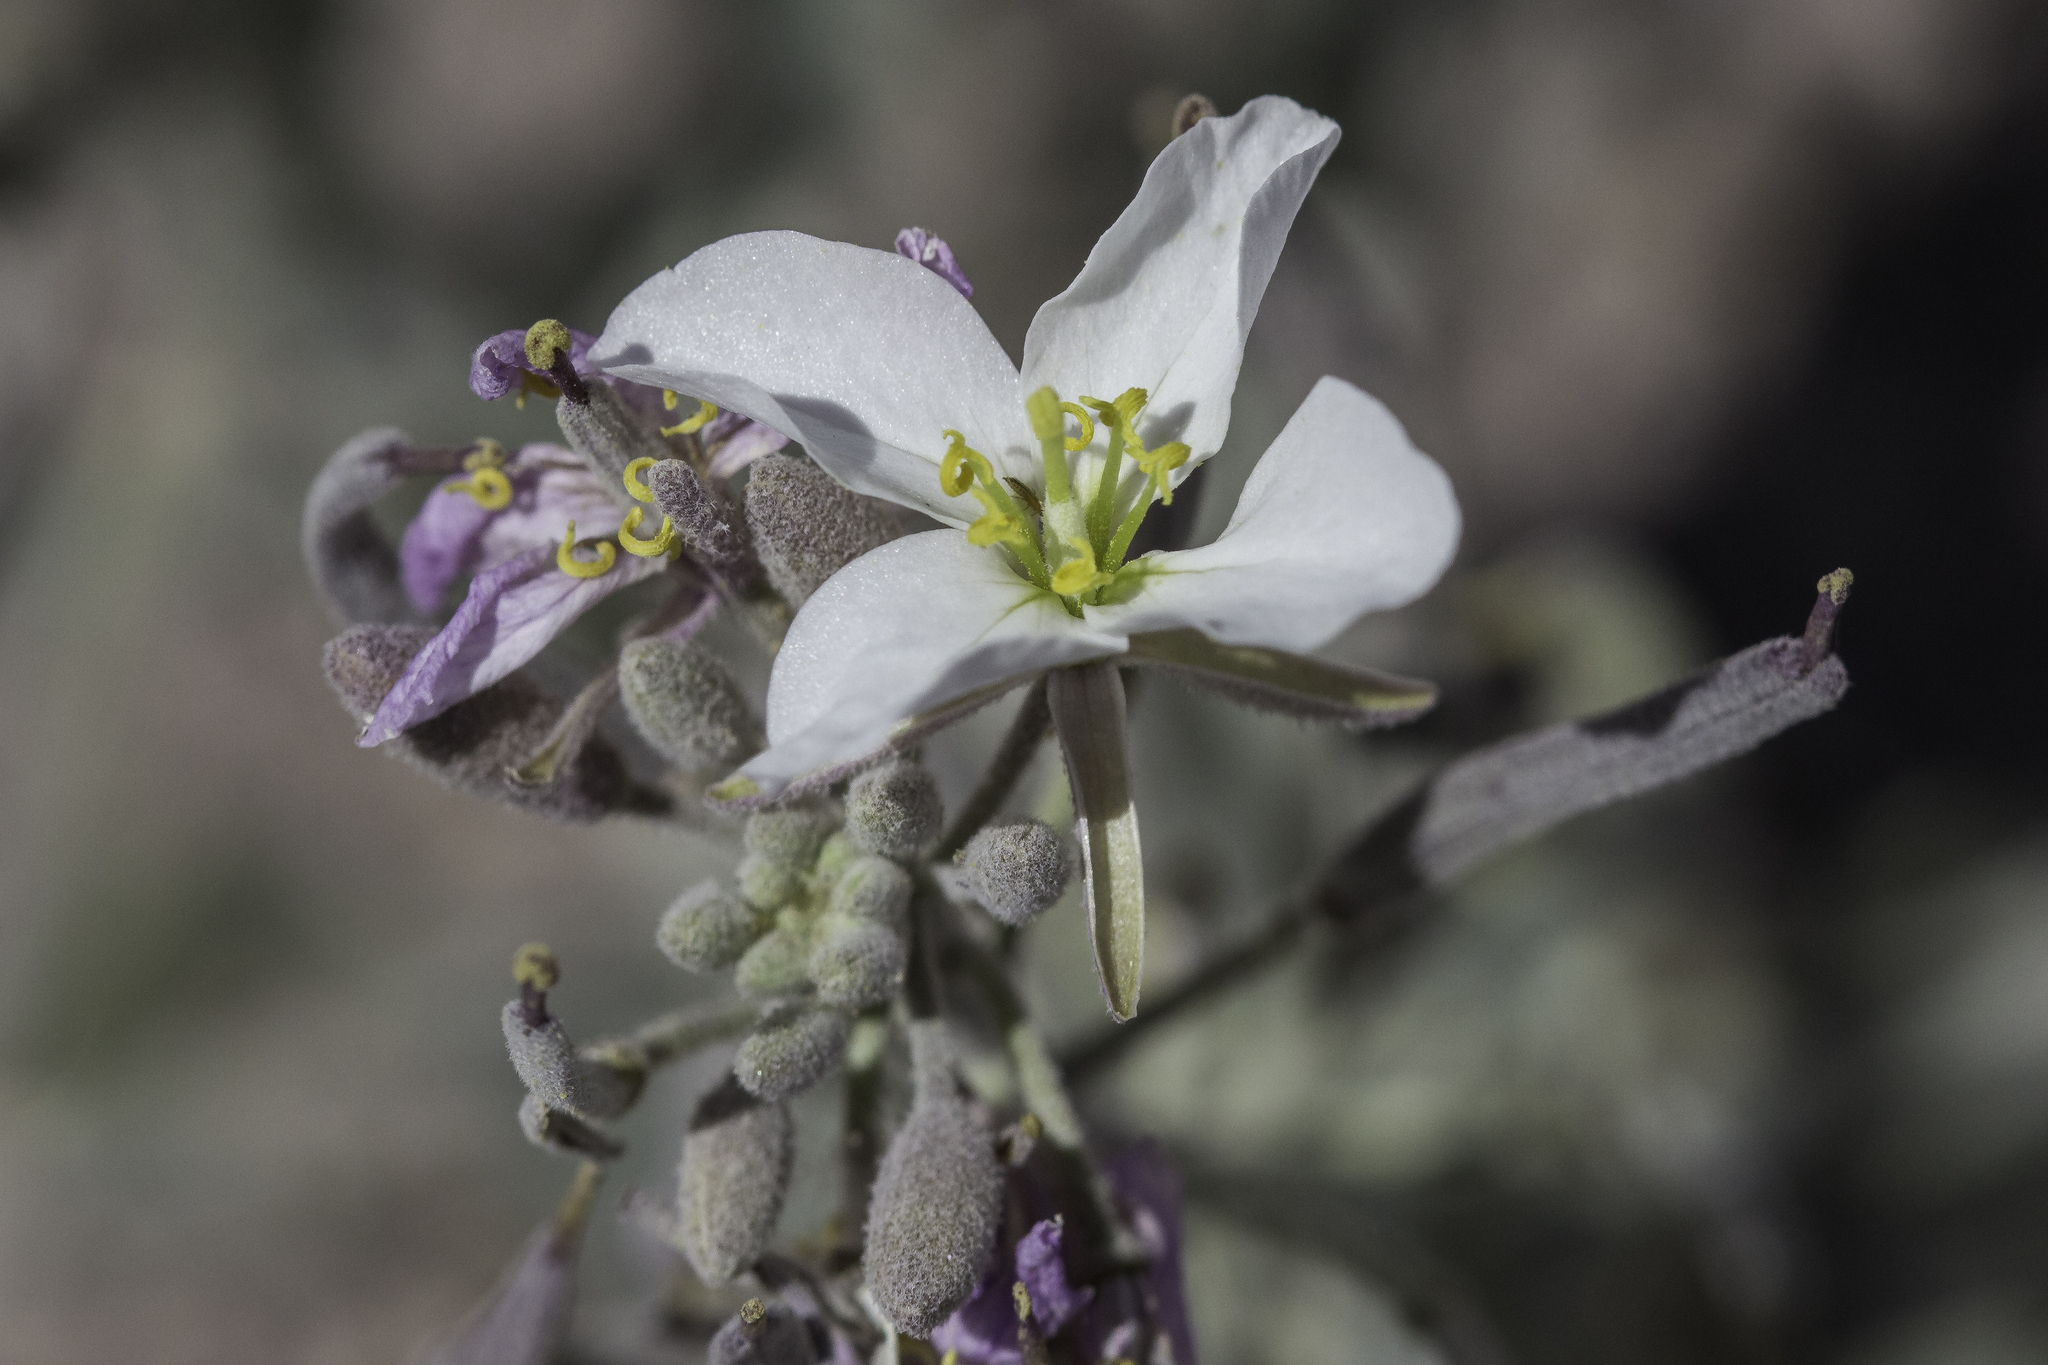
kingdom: Plantae
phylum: Tracheophyta
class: Magnoliopsida
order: Brassicales
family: Brassicaceae
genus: Nerisyrenia
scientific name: Nerisyrenia camporum
